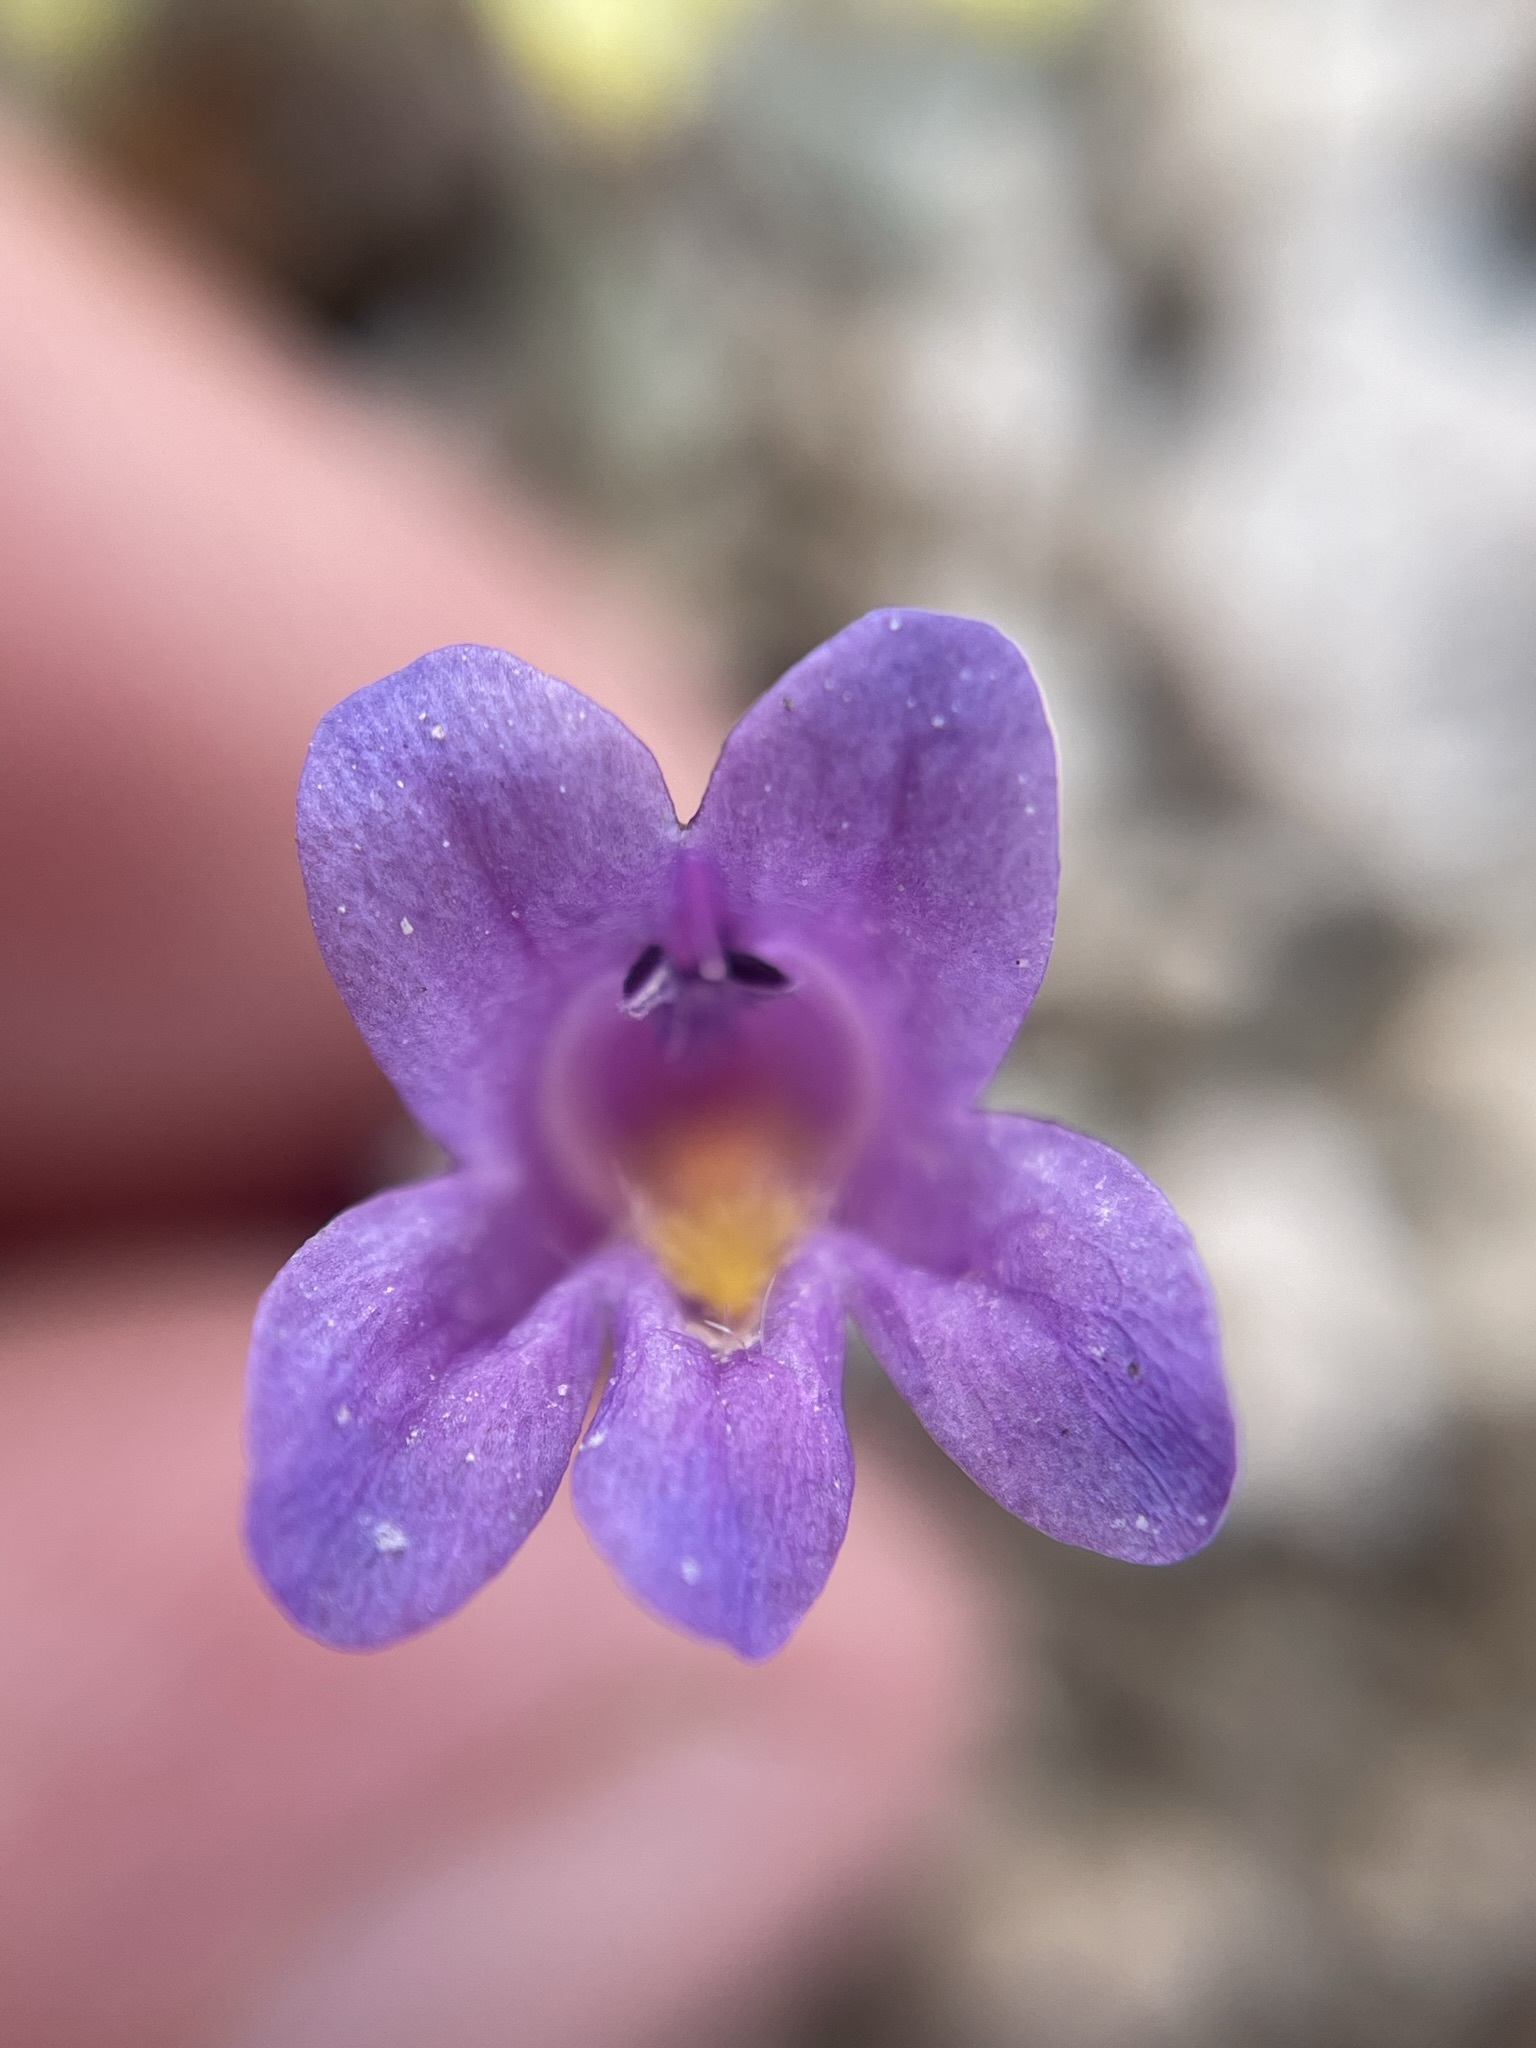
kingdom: Plantae
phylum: Tracheophyta
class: Magnoliopsida
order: Lamiales
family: Plantaginaceae
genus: Penstemon
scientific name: Penstemon thompsoniae
